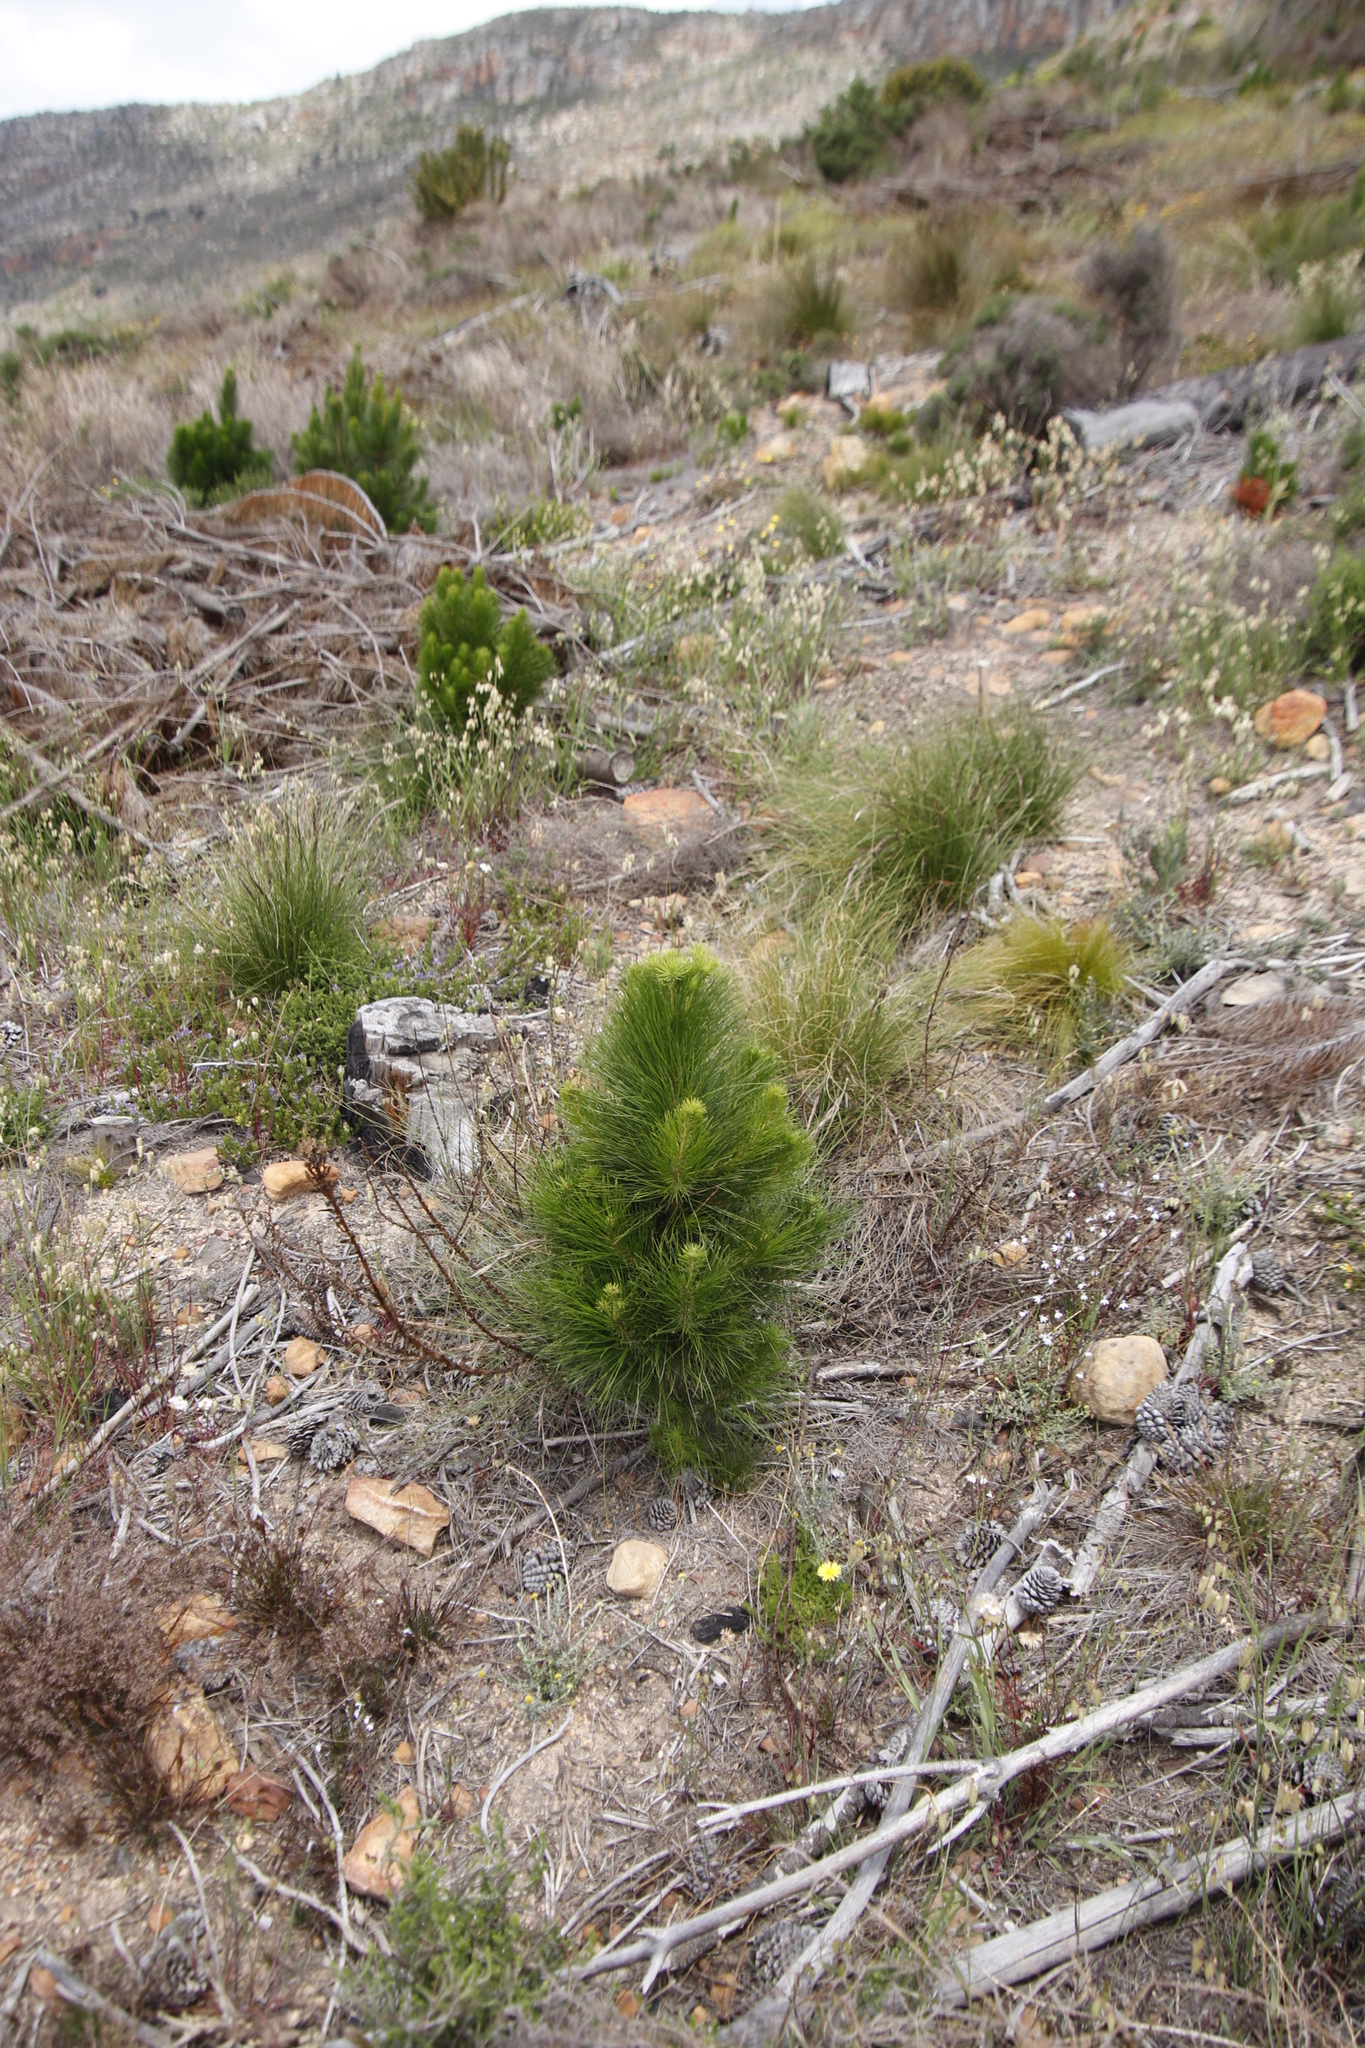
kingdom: Plantae
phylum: Tracheophyta
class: Pinopsida
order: Pinales
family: Pinaceae
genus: Pinus
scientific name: Pinus radiata
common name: Monterey pine
